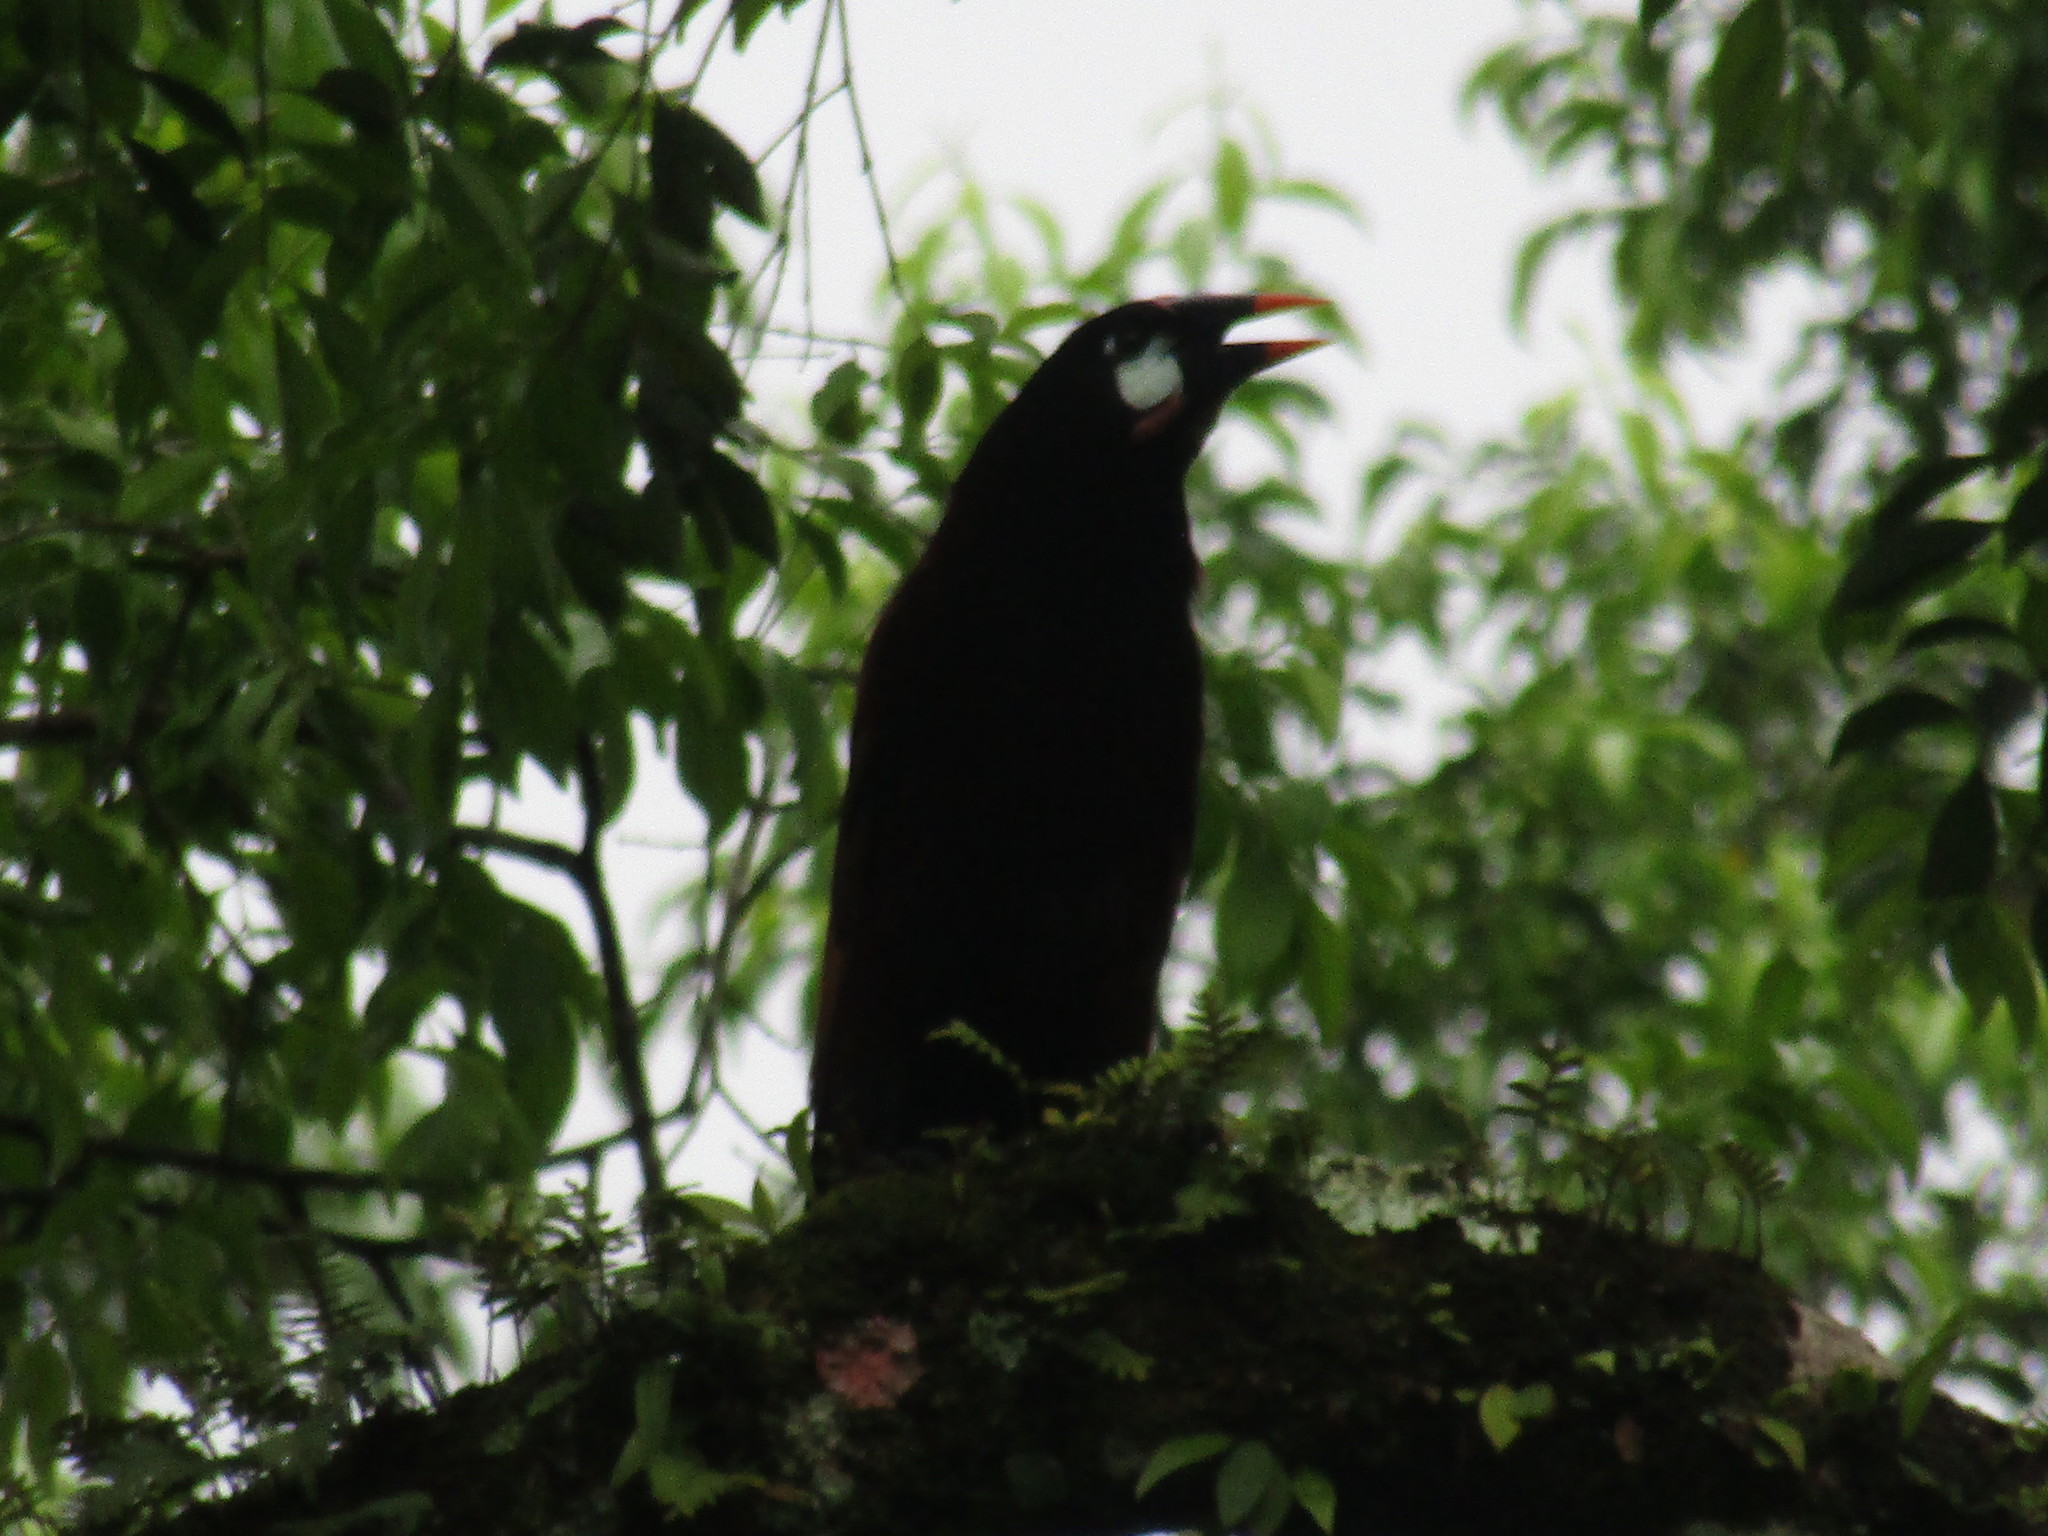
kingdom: Animalia
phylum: Chordata
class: Aves
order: Passeriformes
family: Icteridae
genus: Psarocolius
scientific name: Psarocolius montezuma
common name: Montezuma oropendola
